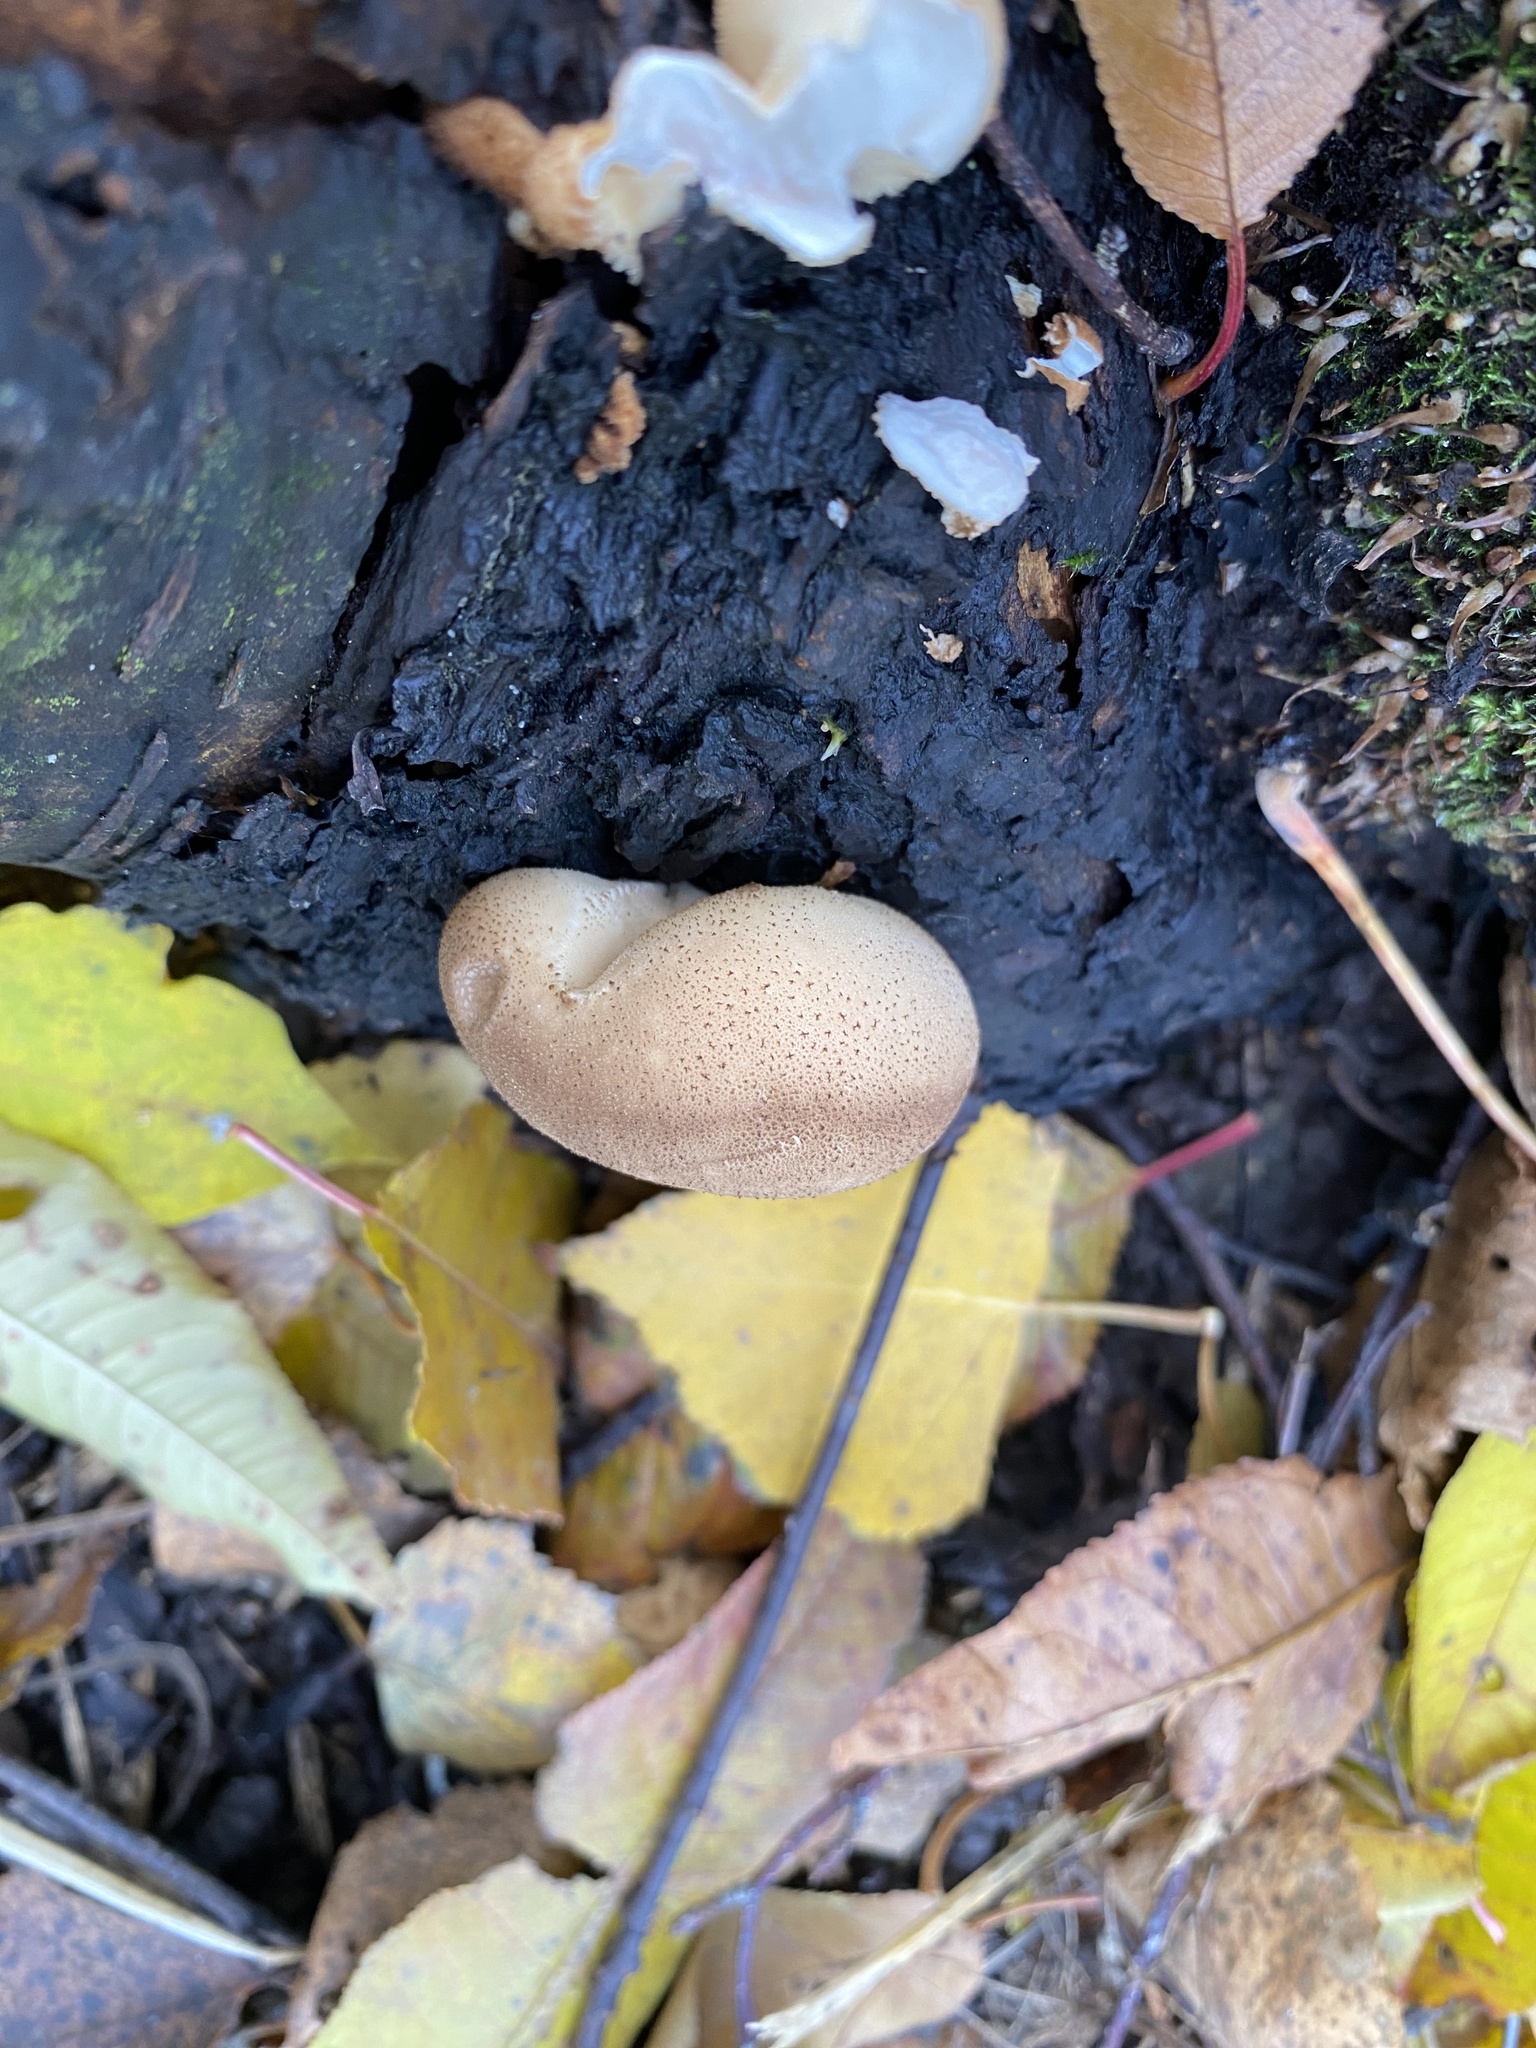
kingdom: Fungi
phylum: Basidiomycota
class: Agaricomycetes
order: Agaricales
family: Lycoperdaceae
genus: Apioperdon
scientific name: Apioperdon pyriforme
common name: Pear-shaped puffball
